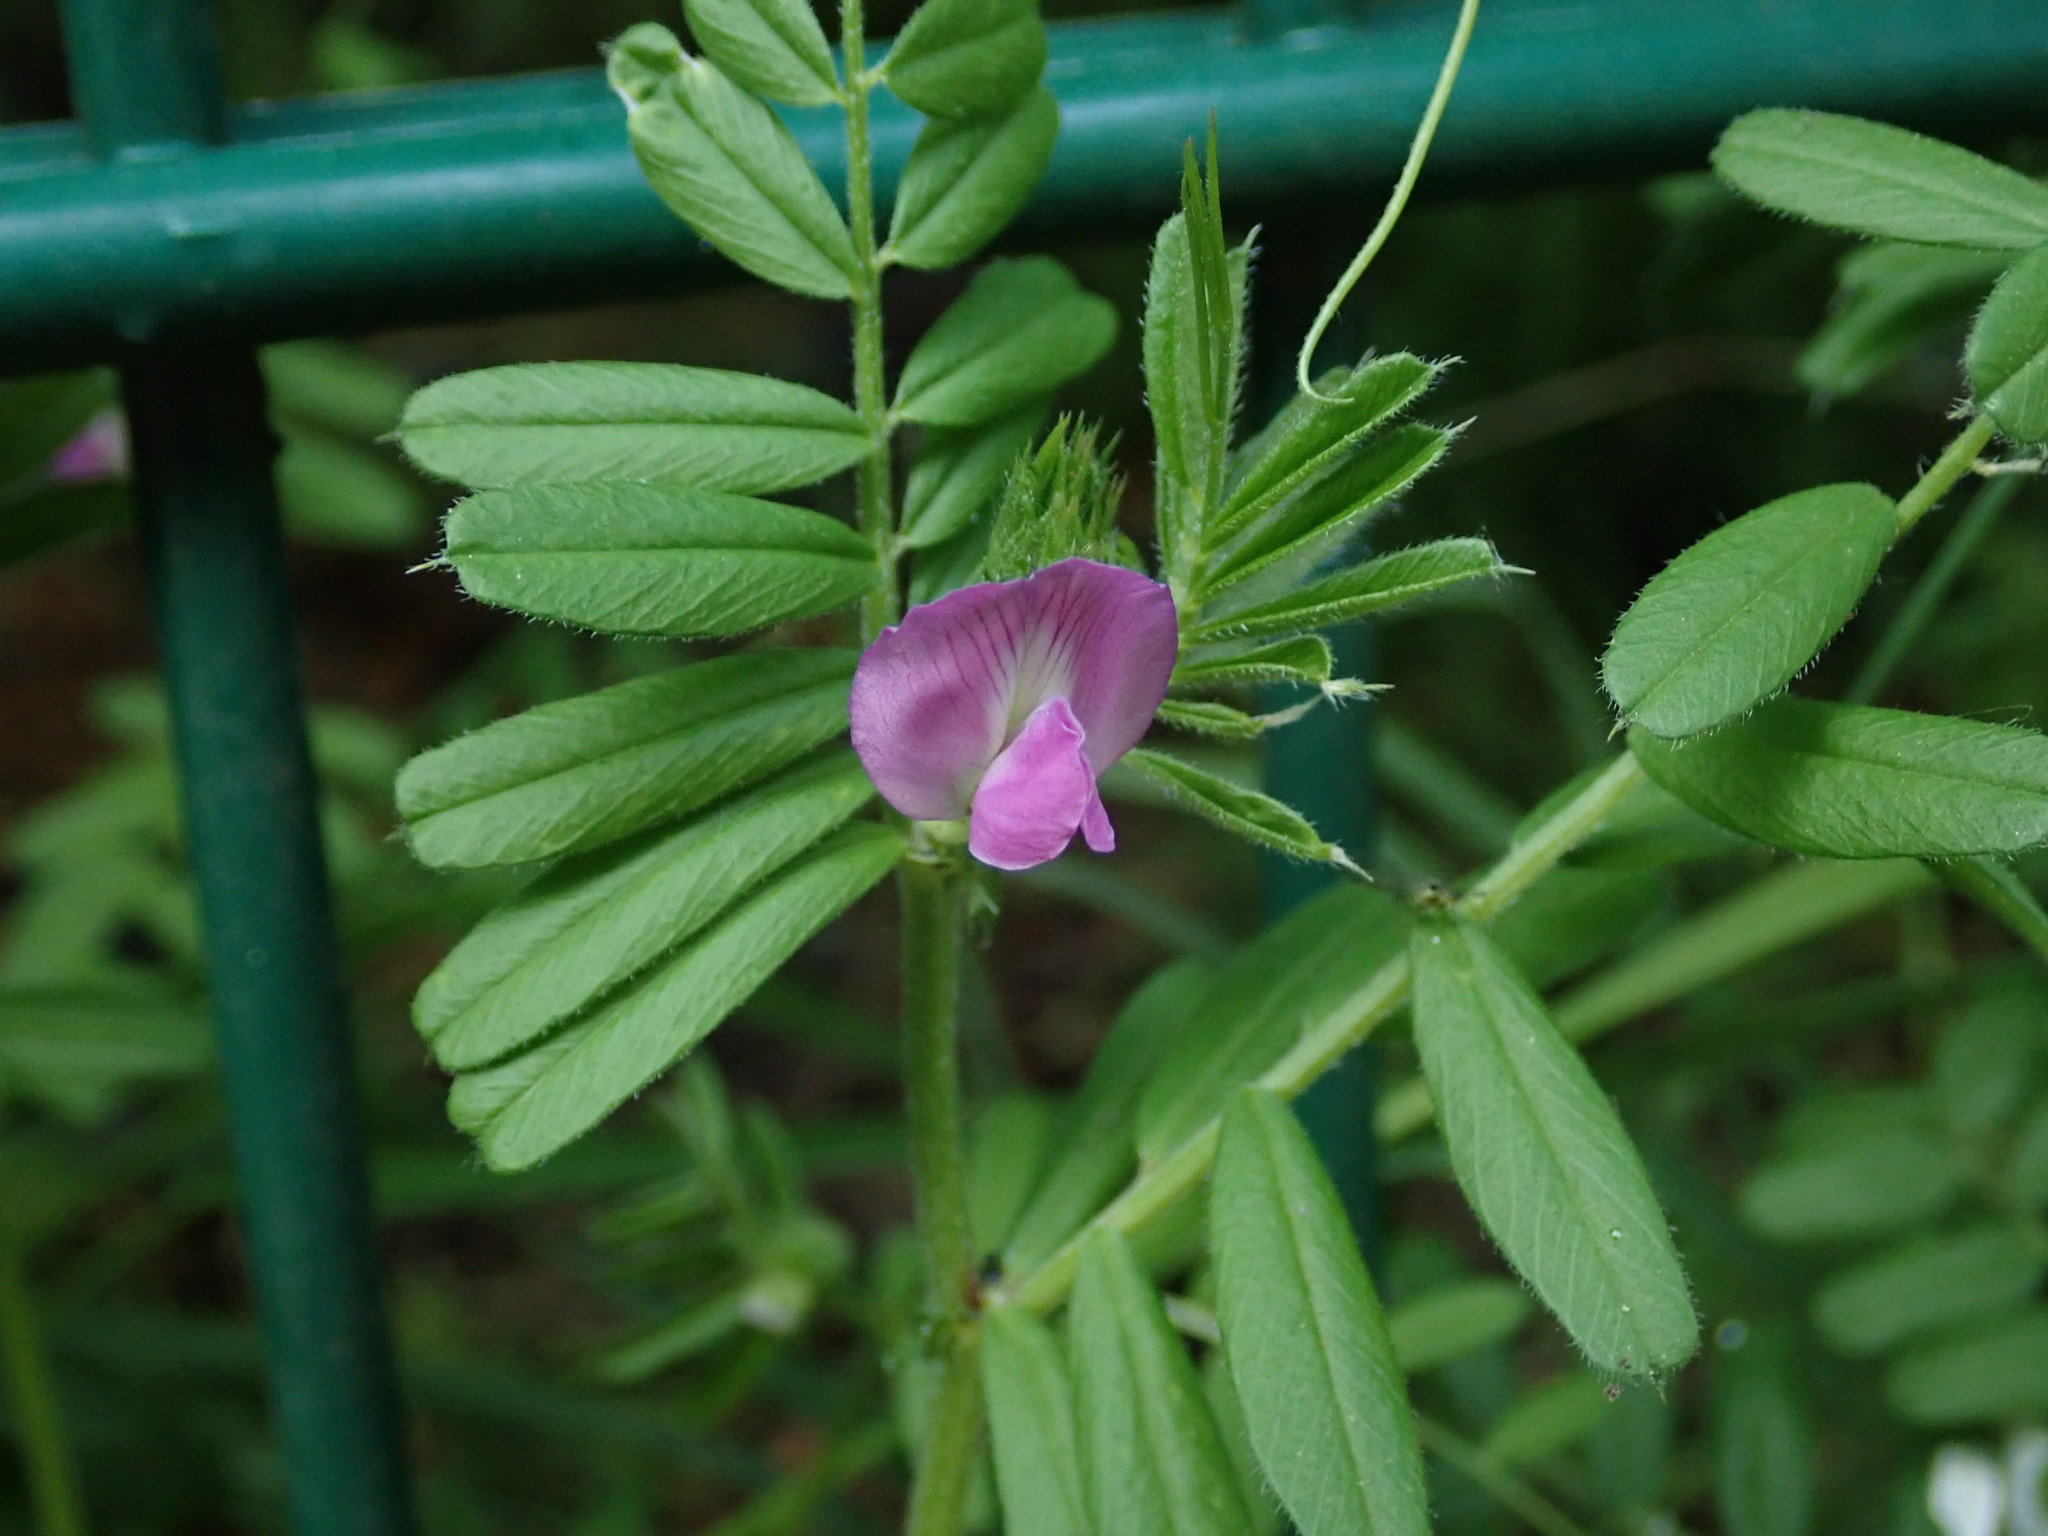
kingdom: Plantae
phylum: Tracheophyta
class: Magnoliopsida
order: Fabales
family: Fabaceae
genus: Vicia
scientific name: Vicia sativa
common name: Garden vetch
